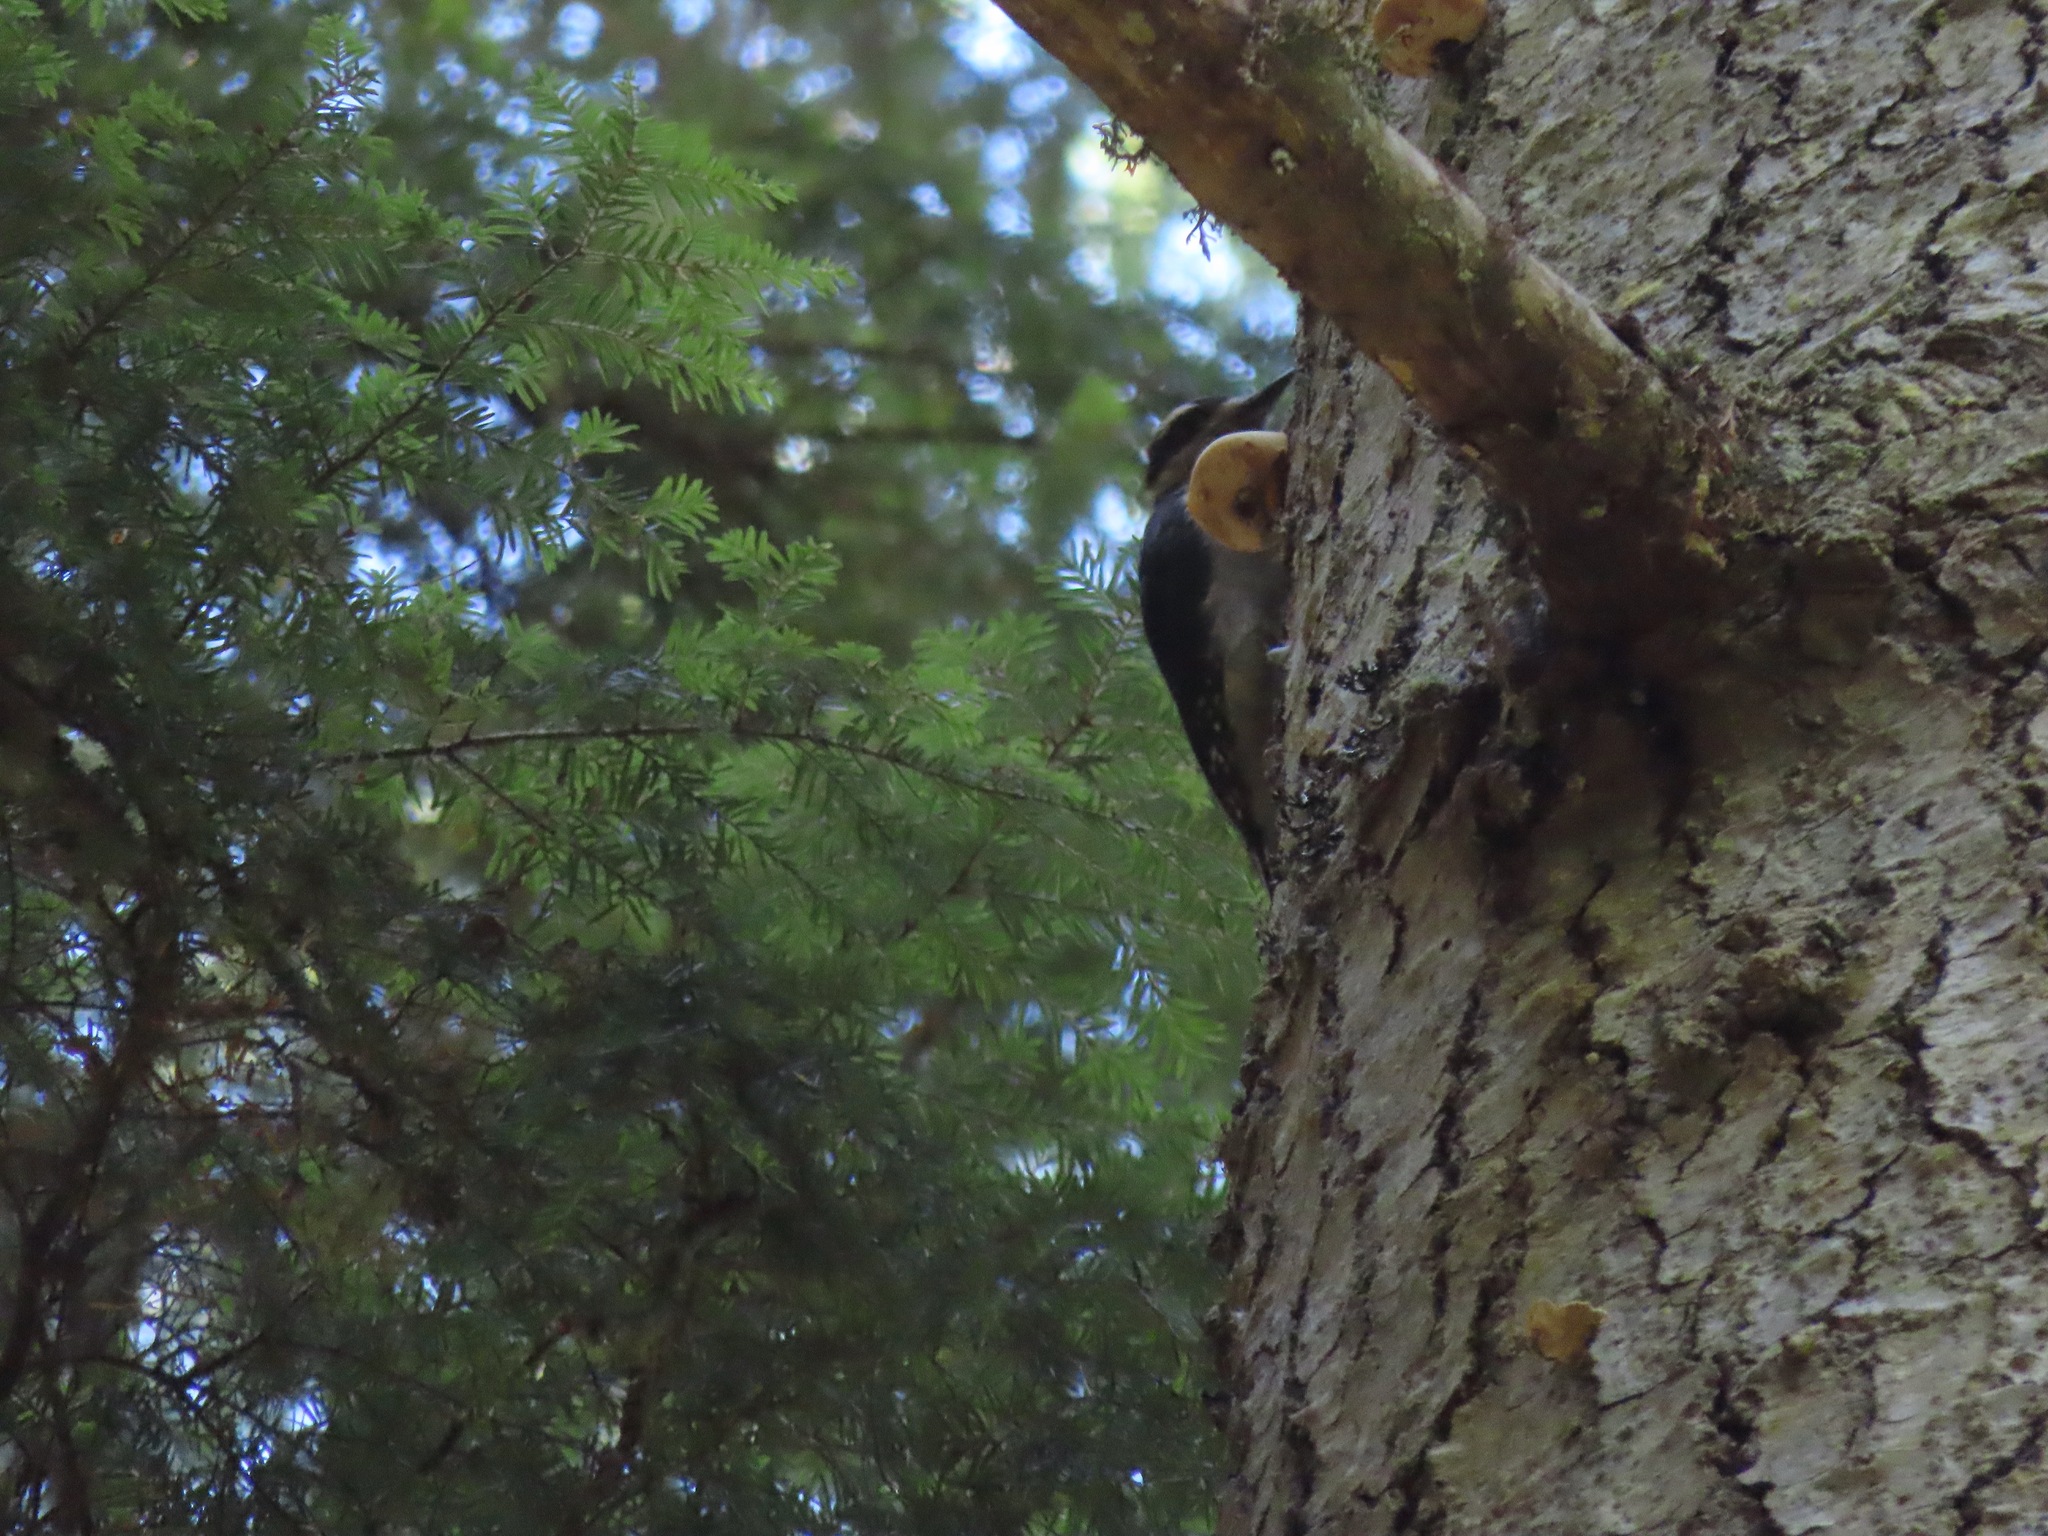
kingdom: Animalia
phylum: Chordata
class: Aves
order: Piciformes
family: Picidae
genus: Leuconotopicus
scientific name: Leuconotopicus villosus
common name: Hairy woodpecker
